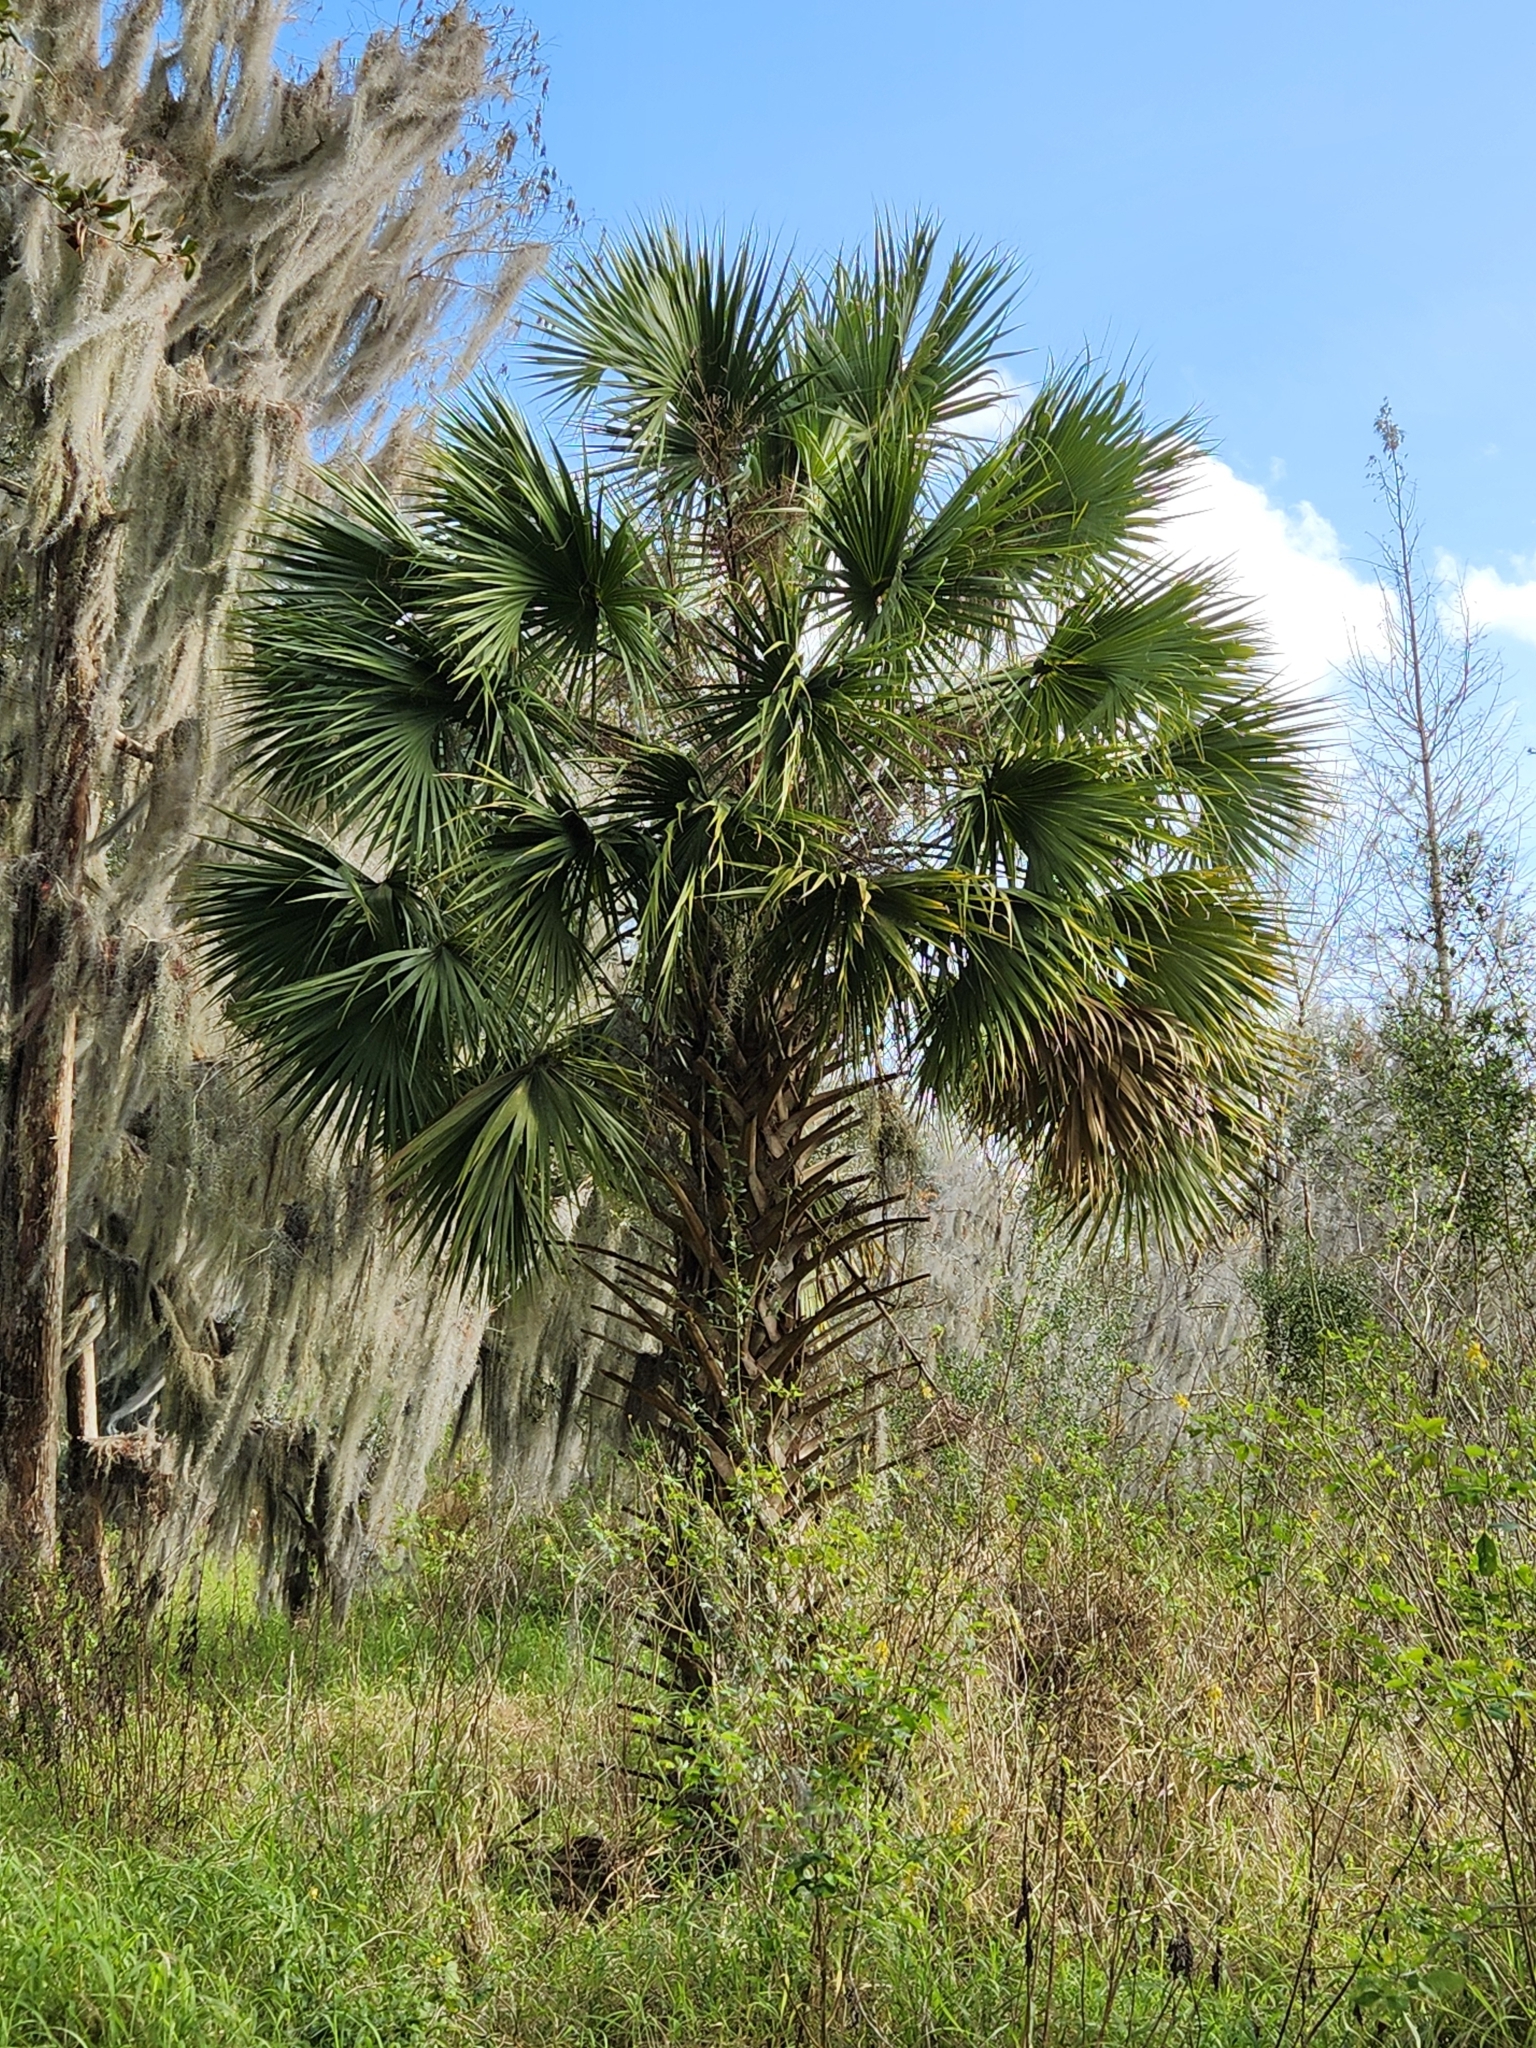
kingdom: Plantae
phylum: Tracheophyta
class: Liliopsida
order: Arecales
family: Arecaceae
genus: Sabal
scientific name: Sabal palmetto
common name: Blue palmetto
